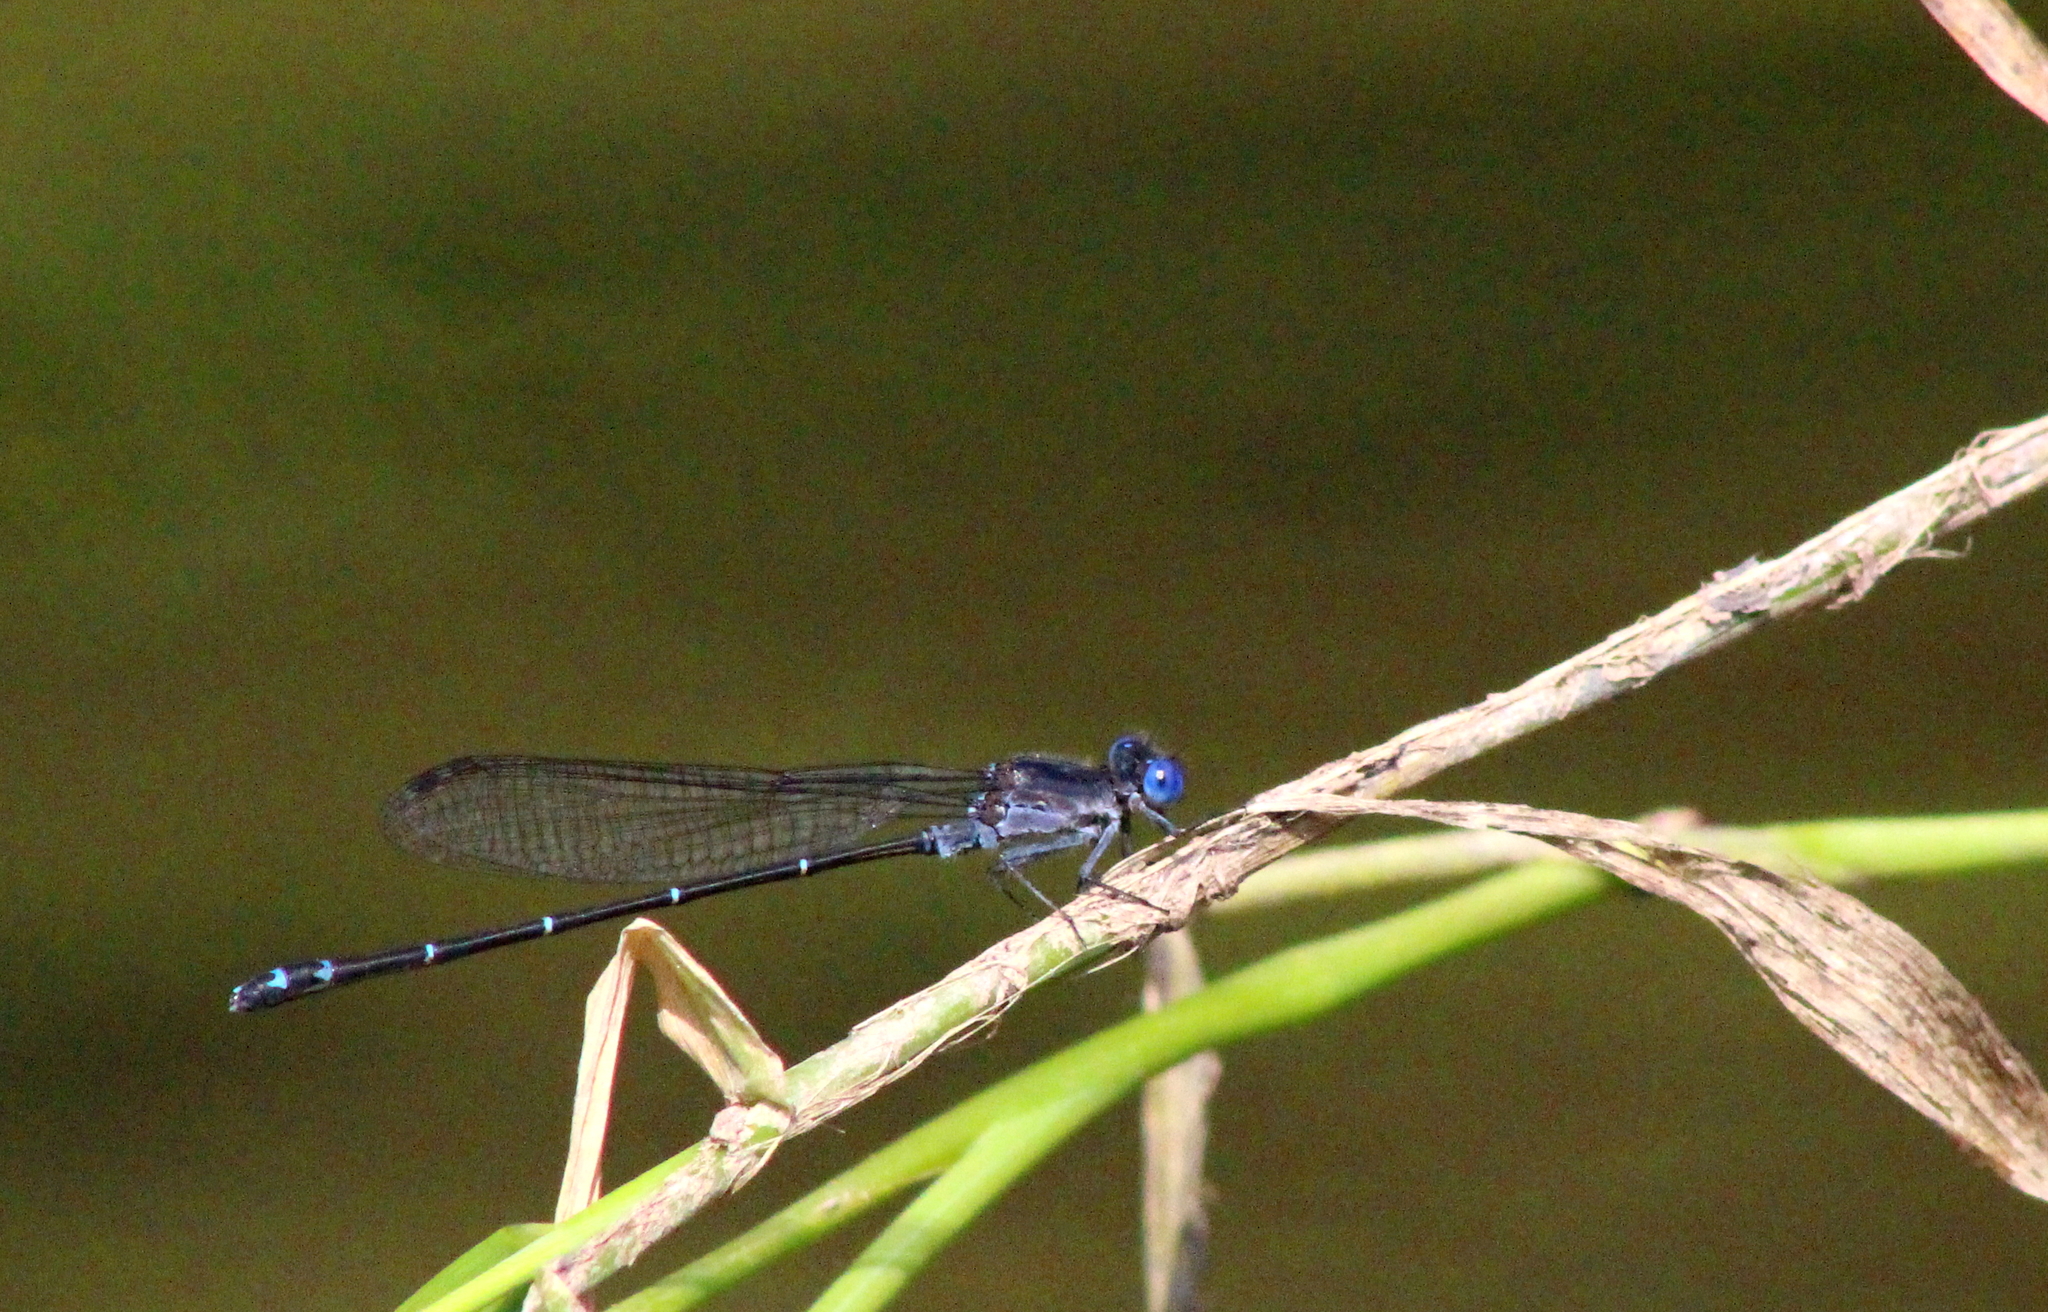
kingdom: Animalia
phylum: Arthropoda
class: Insecta
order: Odonata
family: Coenagrionidae
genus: Argia
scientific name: Argia translata
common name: Dusky dancer
